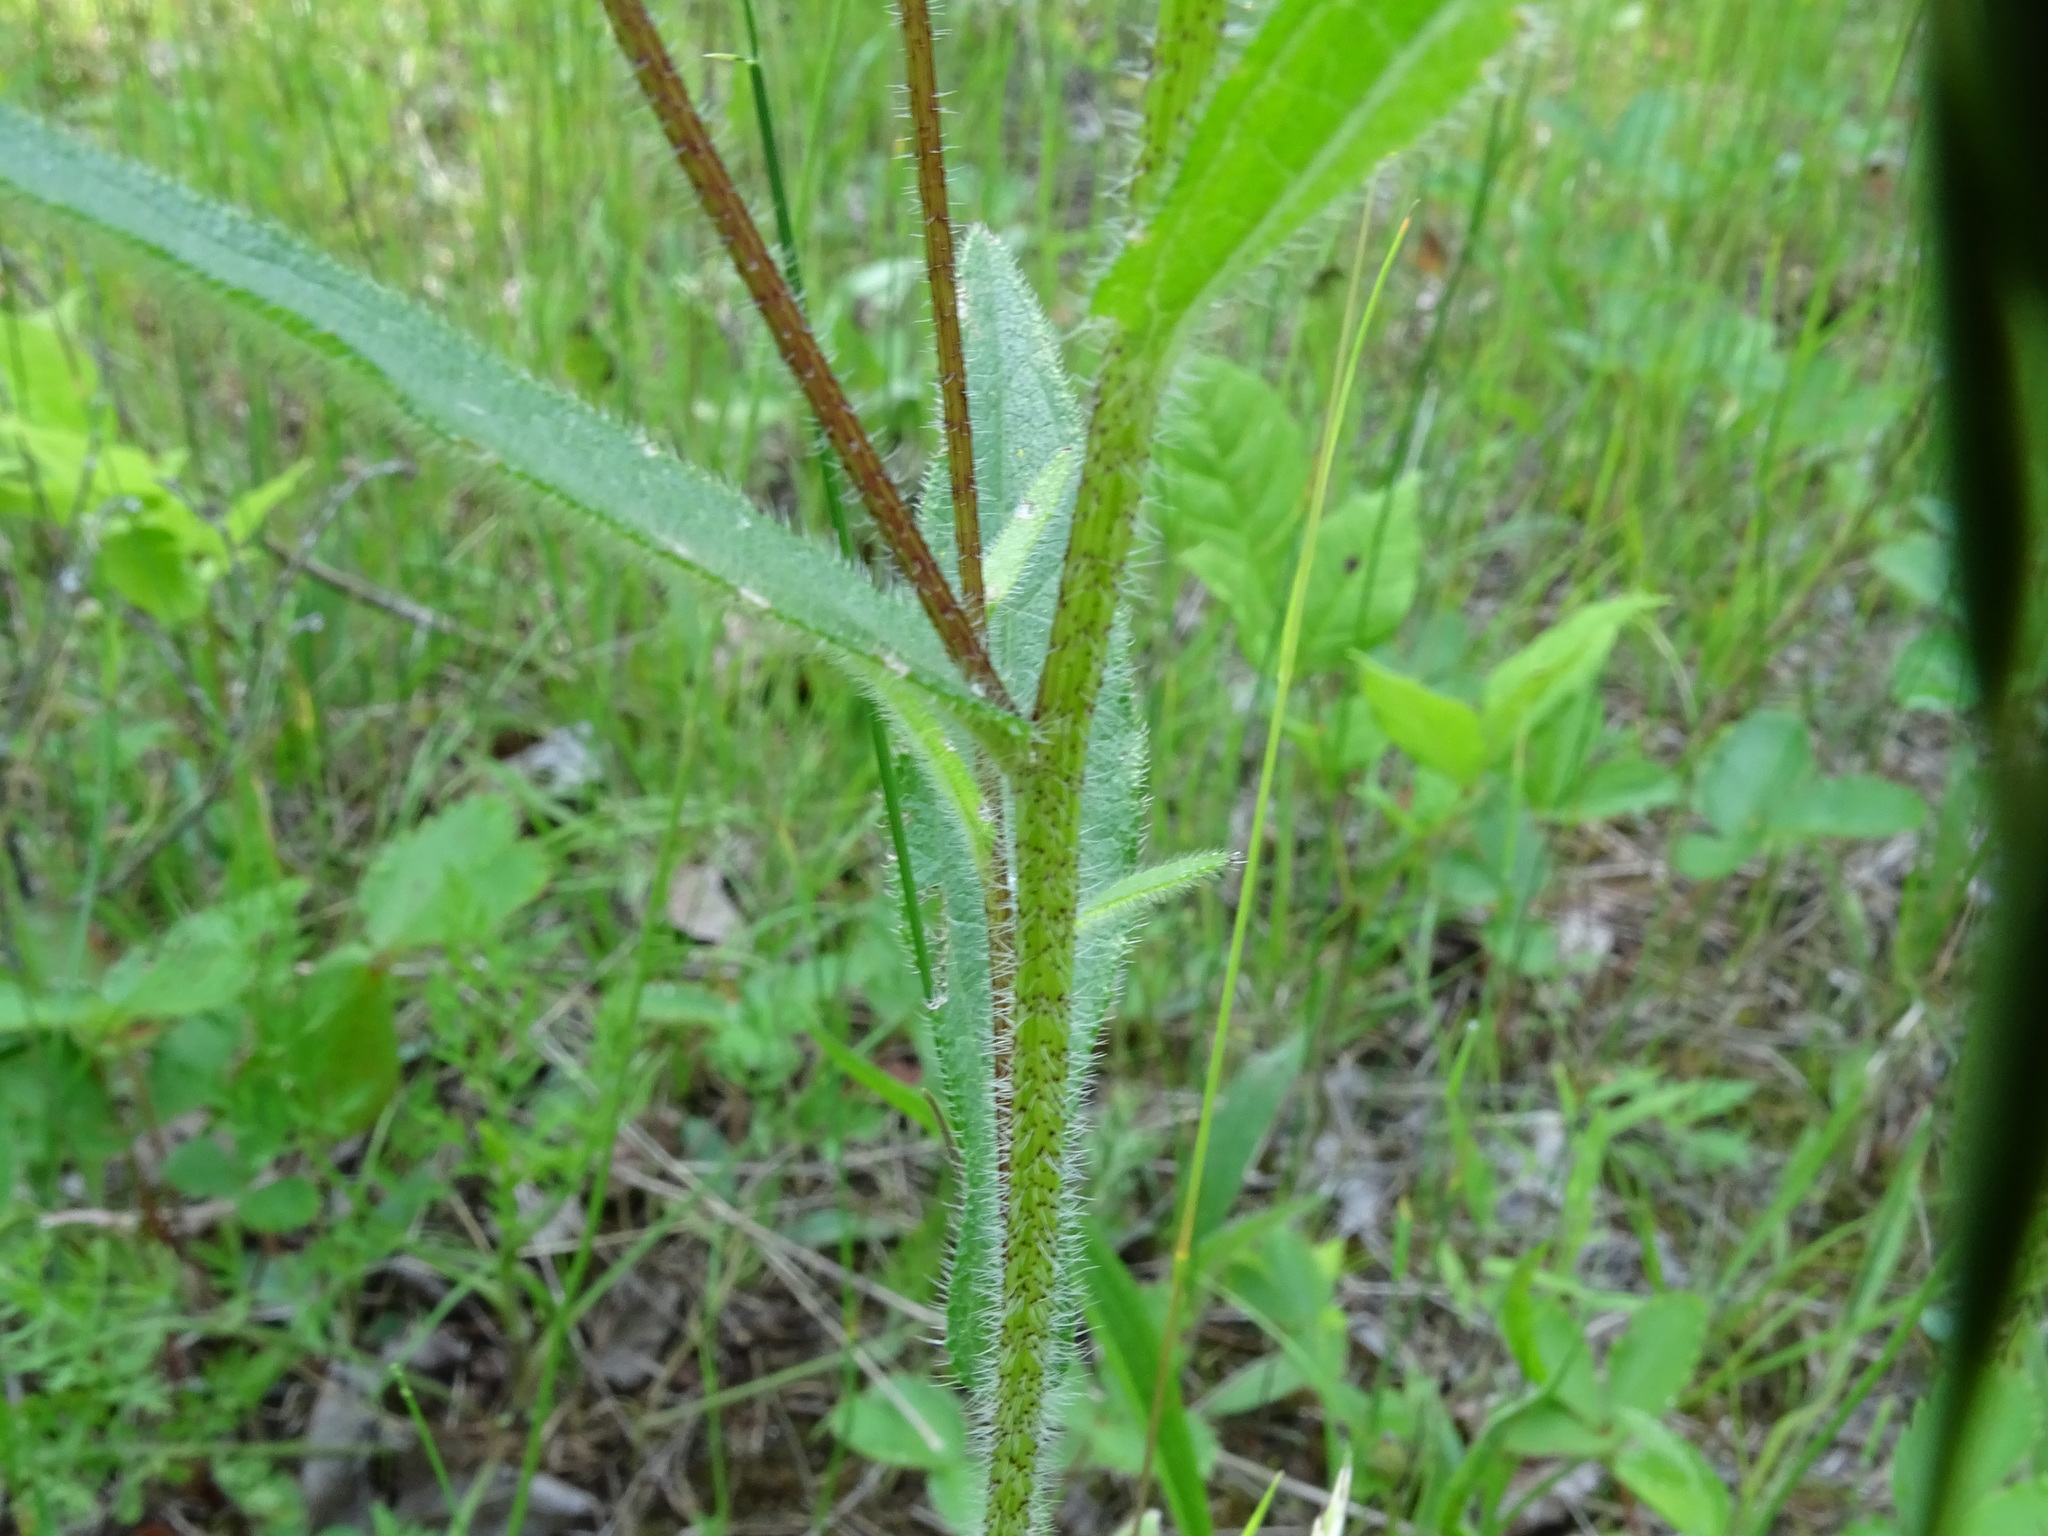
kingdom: Plantae
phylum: Tracheophyta
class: Magnoliopsida
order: Asterales
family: Asteraceae
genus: Rudbeckia
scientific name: Rudbeckia hirta
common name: Black-eyed-susan
